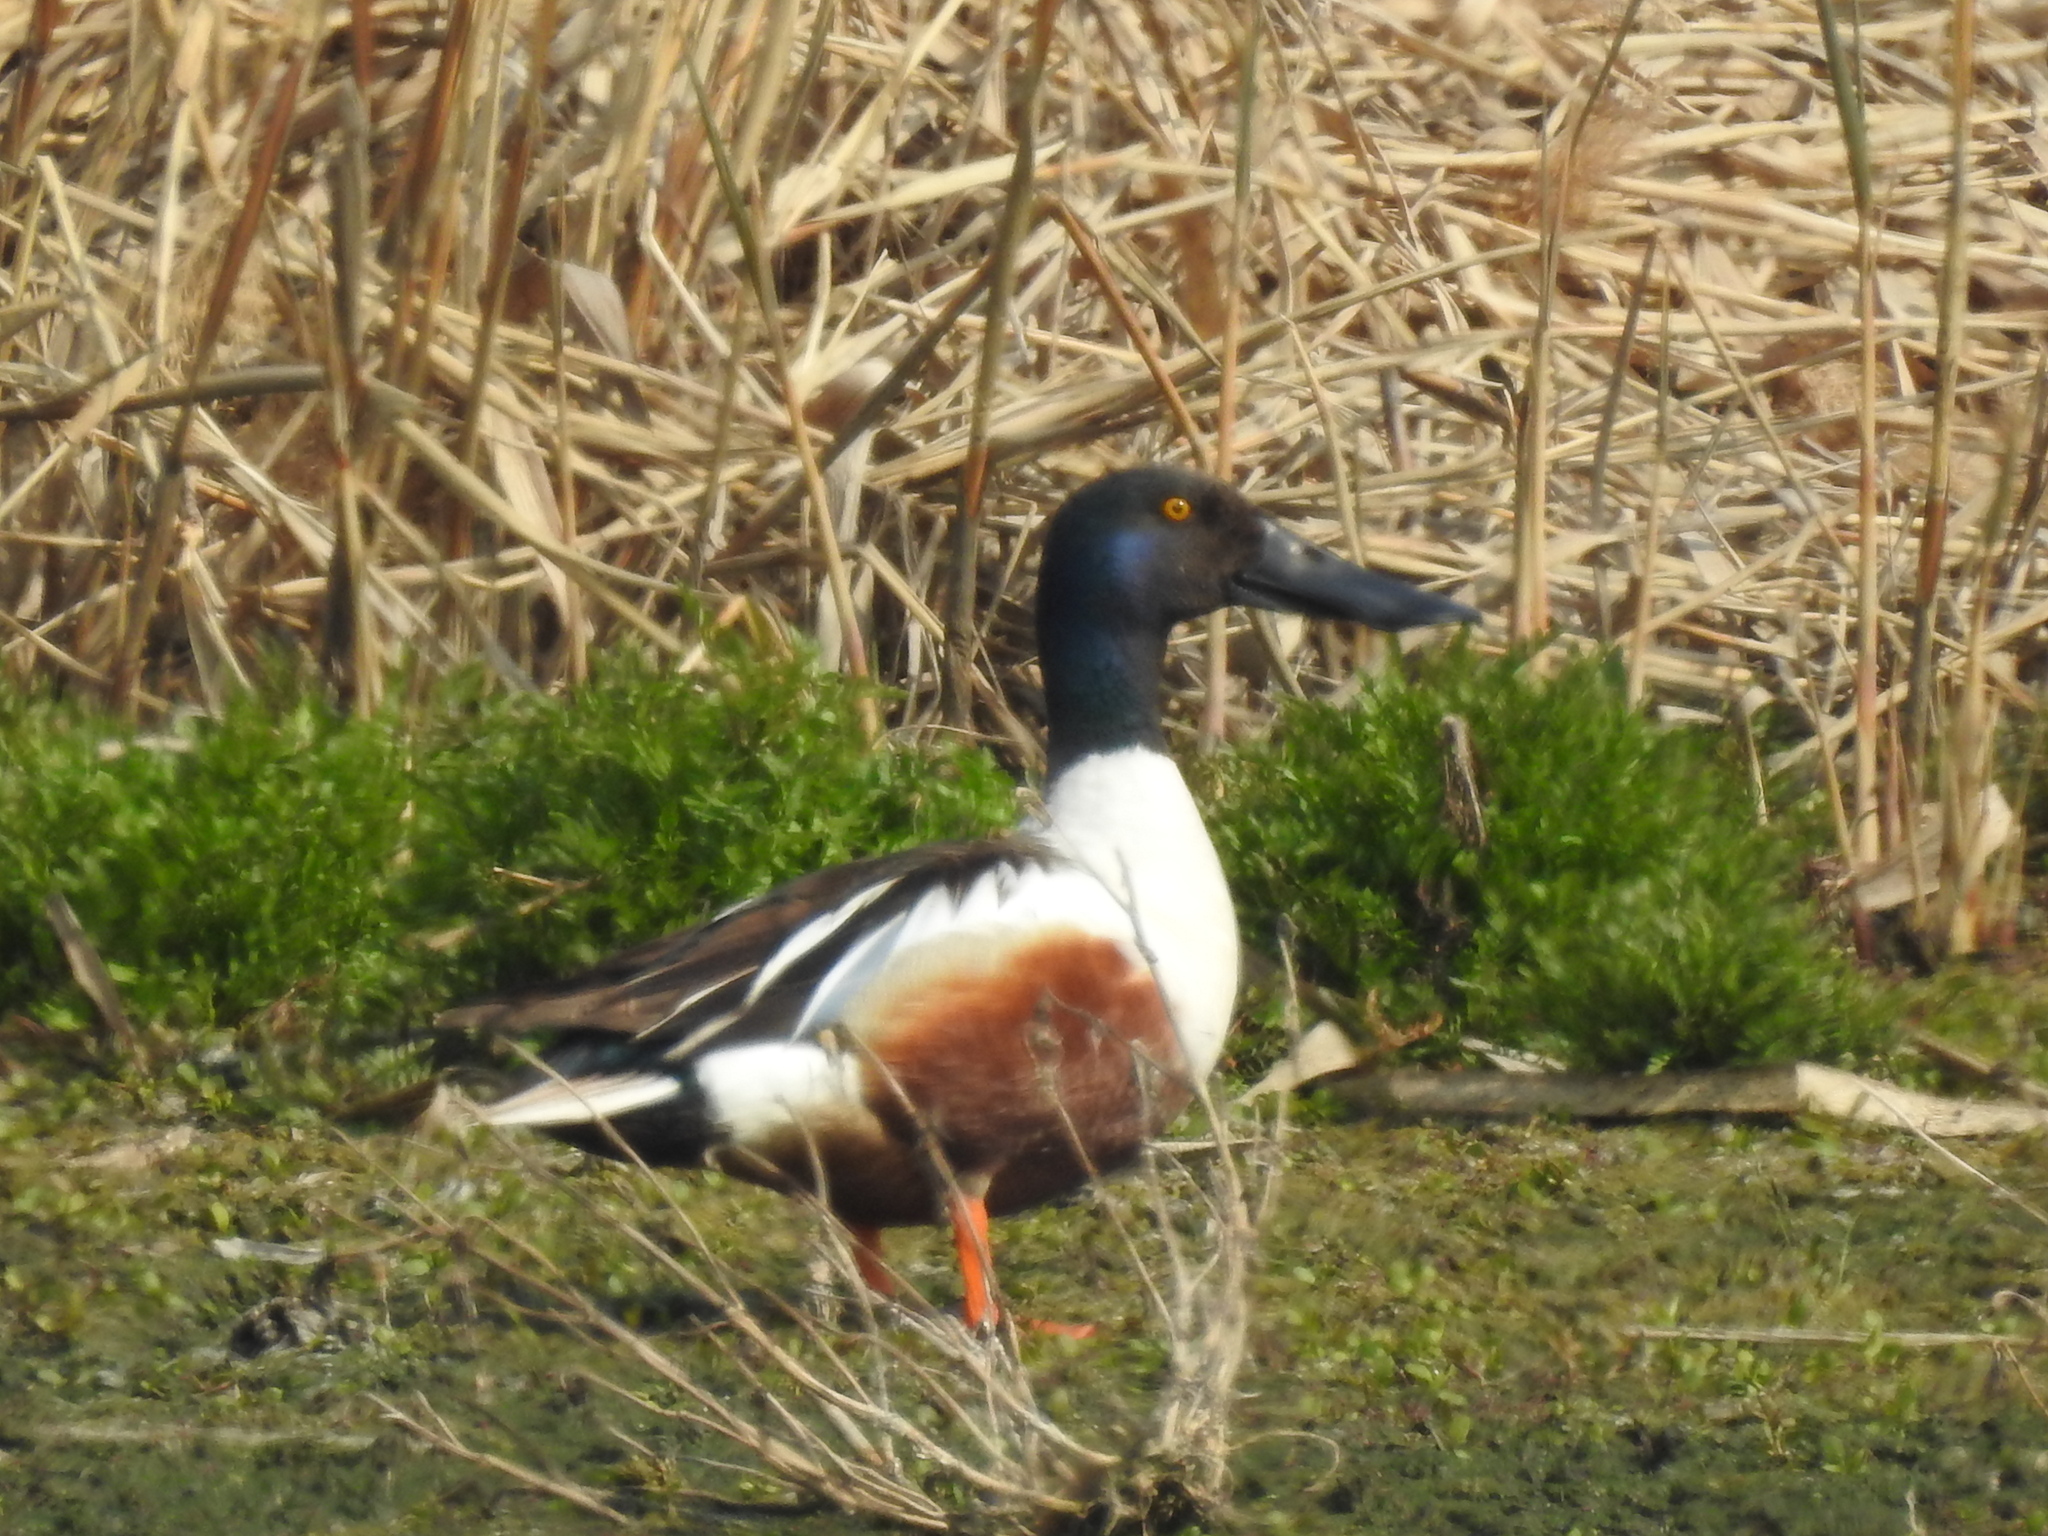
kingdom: Animalia
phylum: Chordata
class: Aves
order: Anseriformes
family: Anatidae
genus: Spatula
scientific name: Spatula clypeata
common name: Northern shoveler
